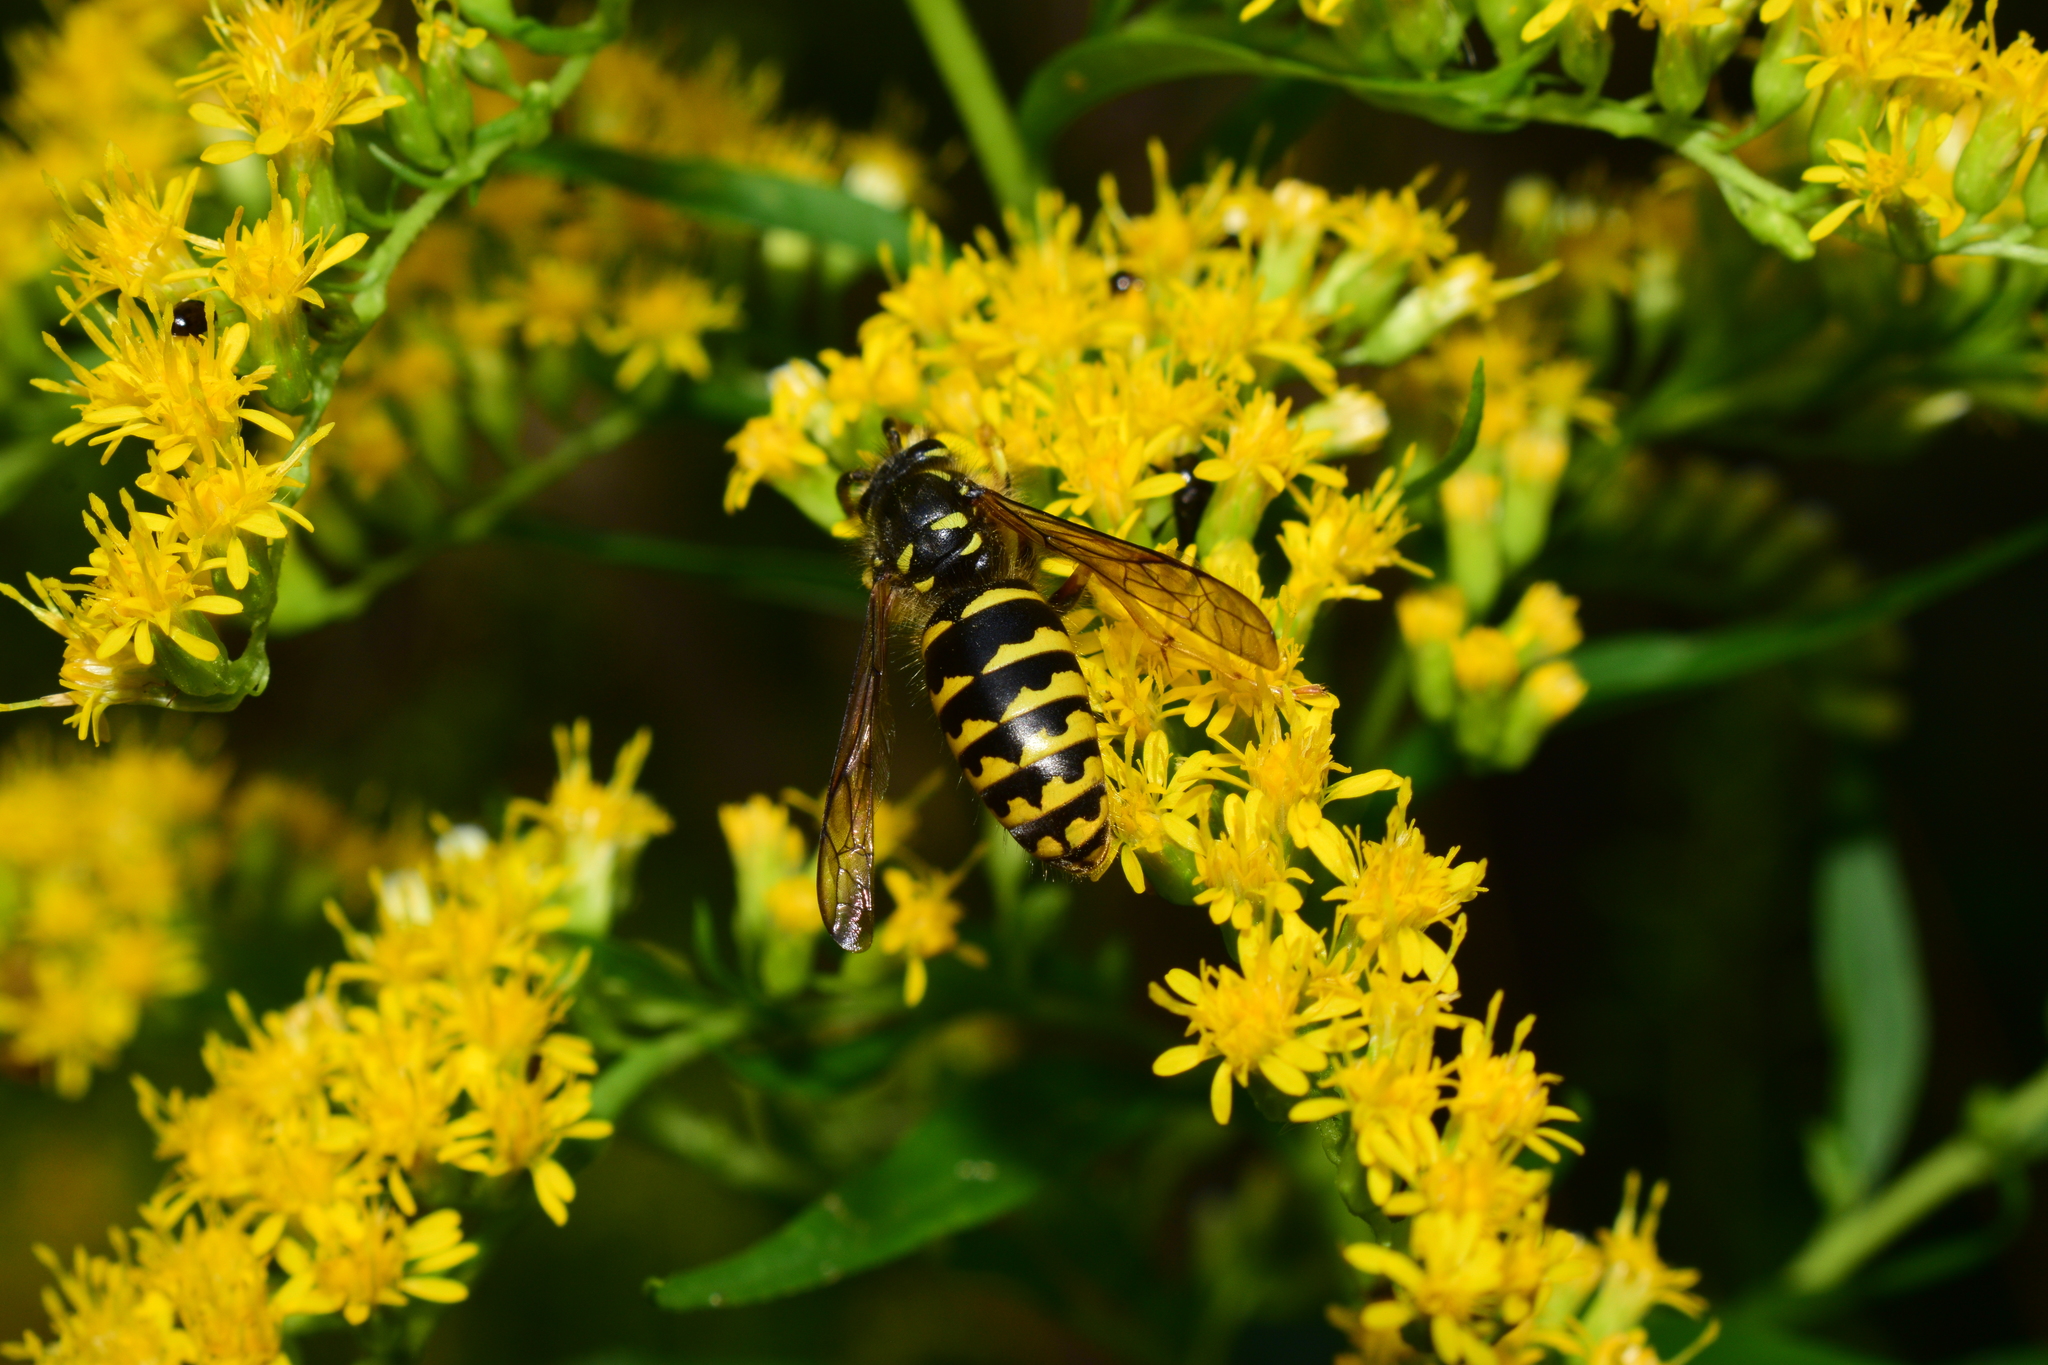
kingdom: Animalia
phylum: Arthropoda
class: Insecta
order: Hymenoptera
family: Vespidae
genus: Dolichovespula
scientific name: Dolichovespula arenaria
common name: Aerial yellowjacket
